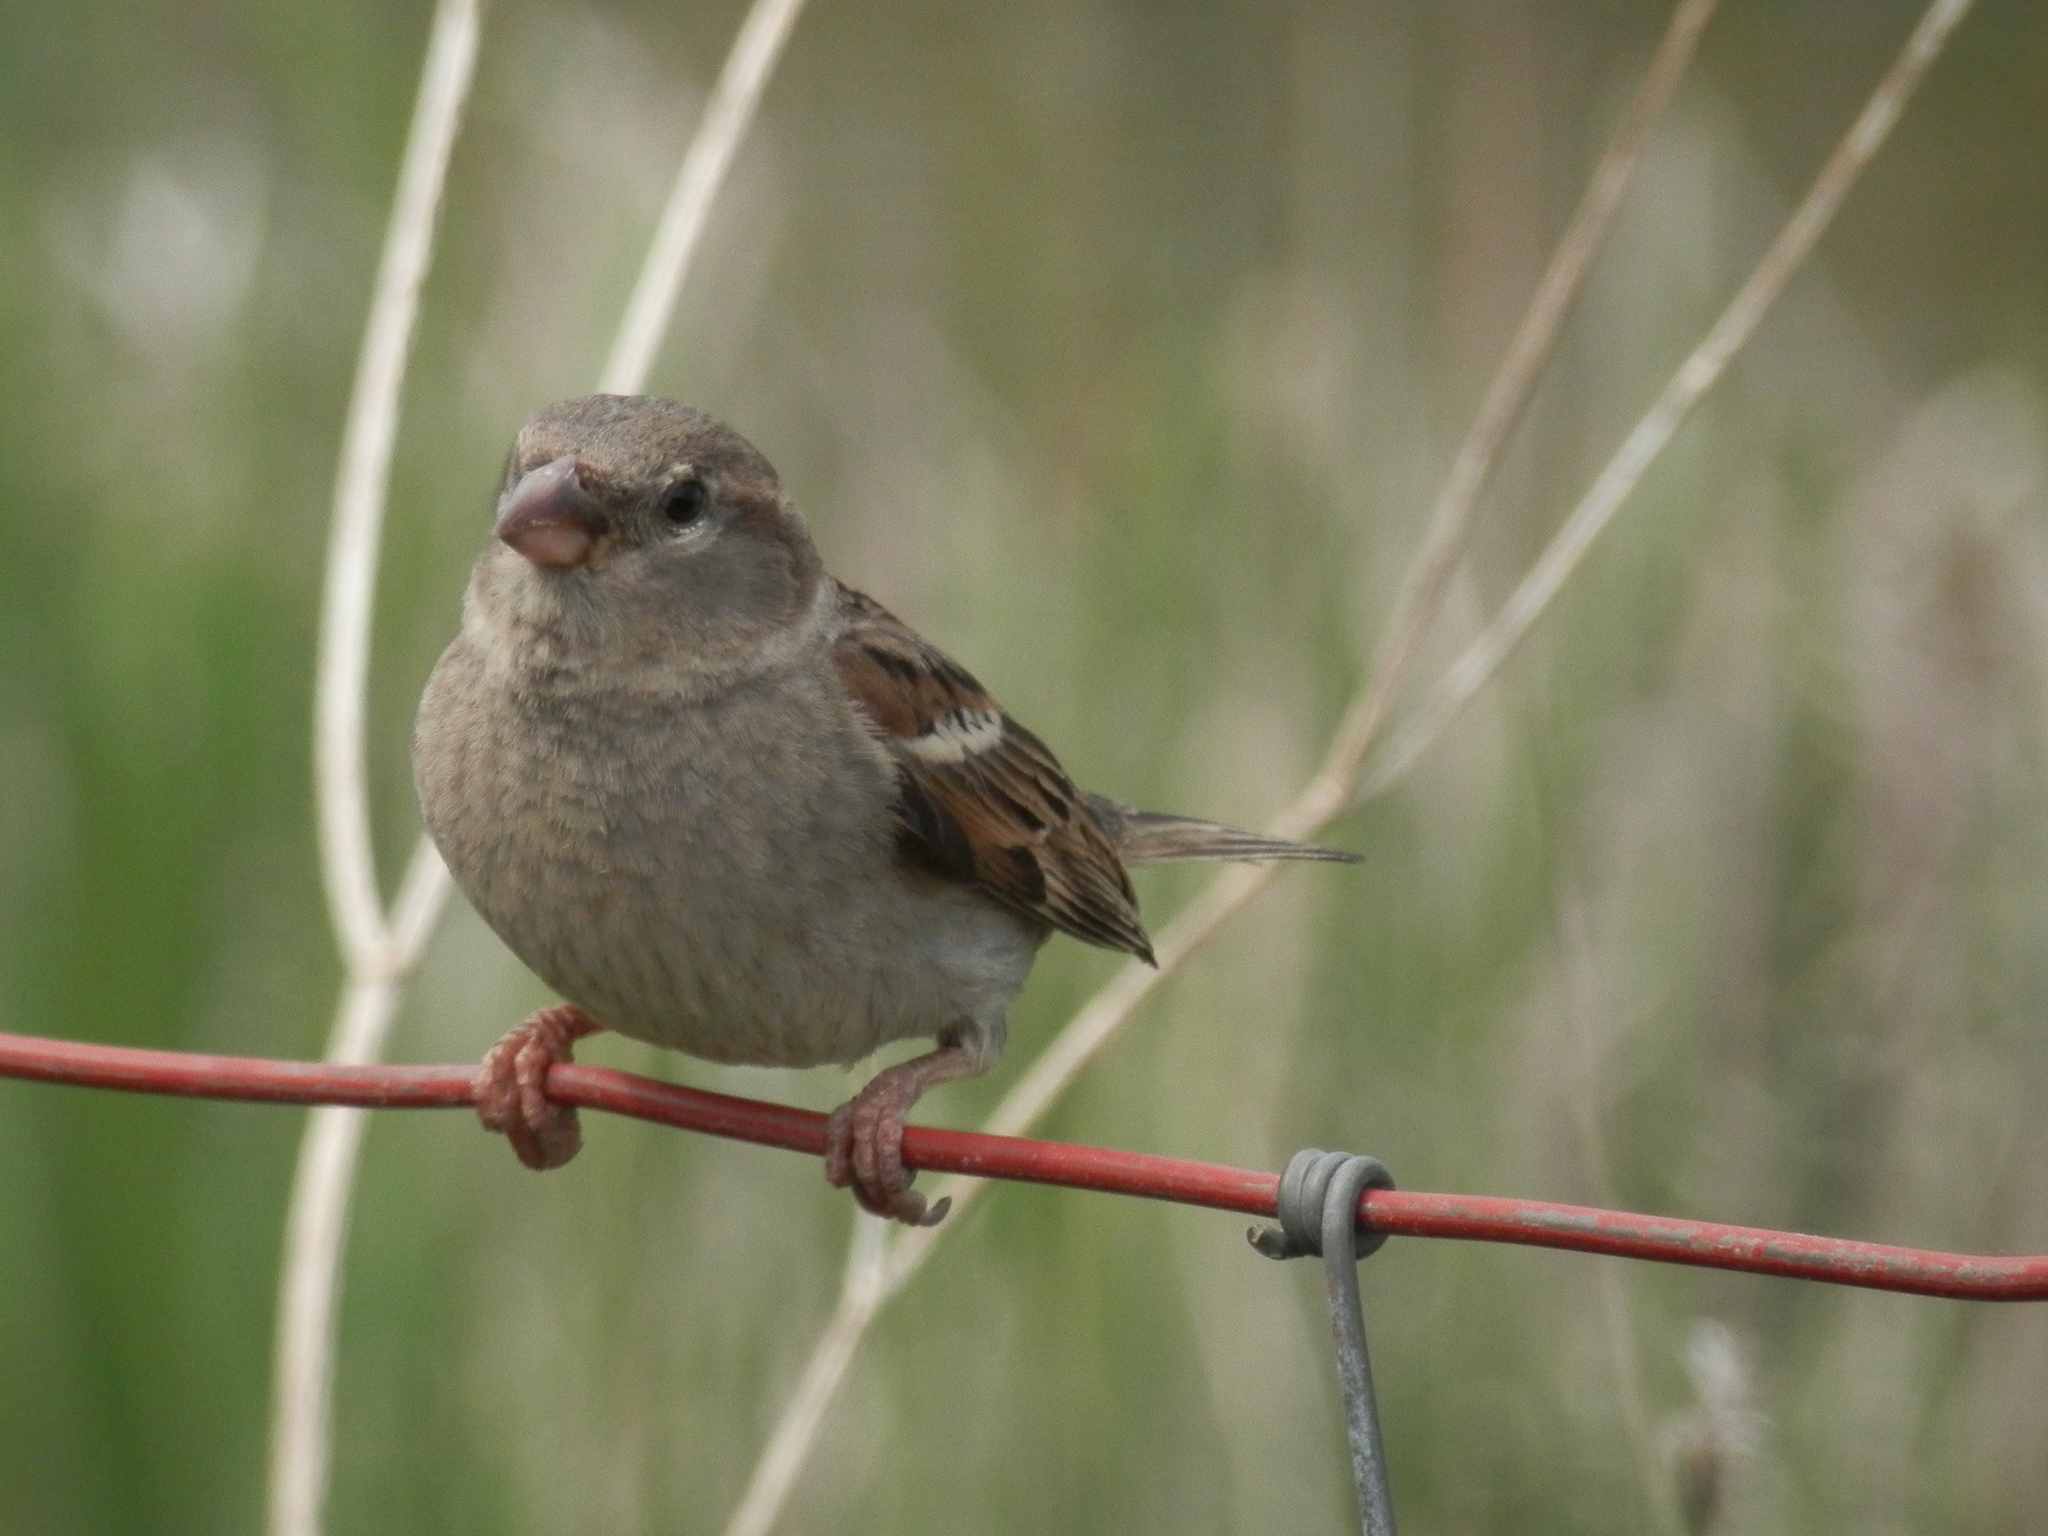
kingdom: Animalia
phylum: Chordata
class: Aves
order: Passeriformes
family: Passeridae
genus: Passer
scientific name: Passer domesticus
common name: House sparrow
